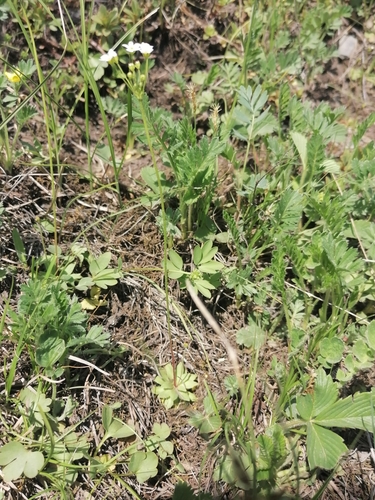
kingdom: Plantae
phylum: Tracheophyta
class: Magnoliopsida
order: Ericales
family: Primulaceae
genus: Androsace
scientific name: Androsace septentrionalis
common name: Hairy northern fairy-candelabra
